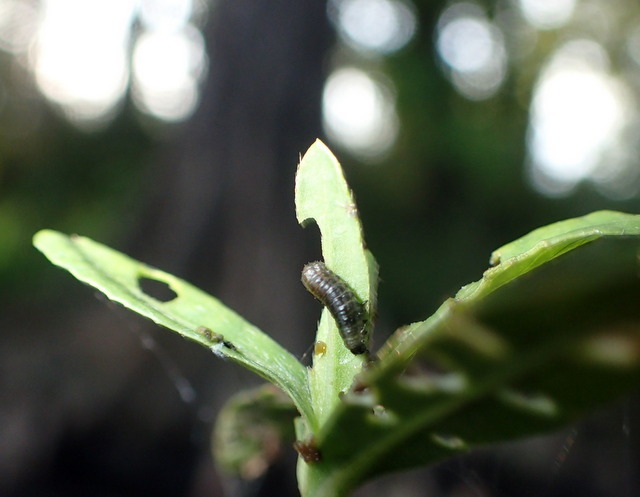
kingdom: Animalia
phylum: Arthropoda
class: Insecta
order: Coleoptera
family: Chrysomelidae
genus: Agasicles
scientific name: Agasicles hygrophila
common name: Alligatorweed flea beetle
